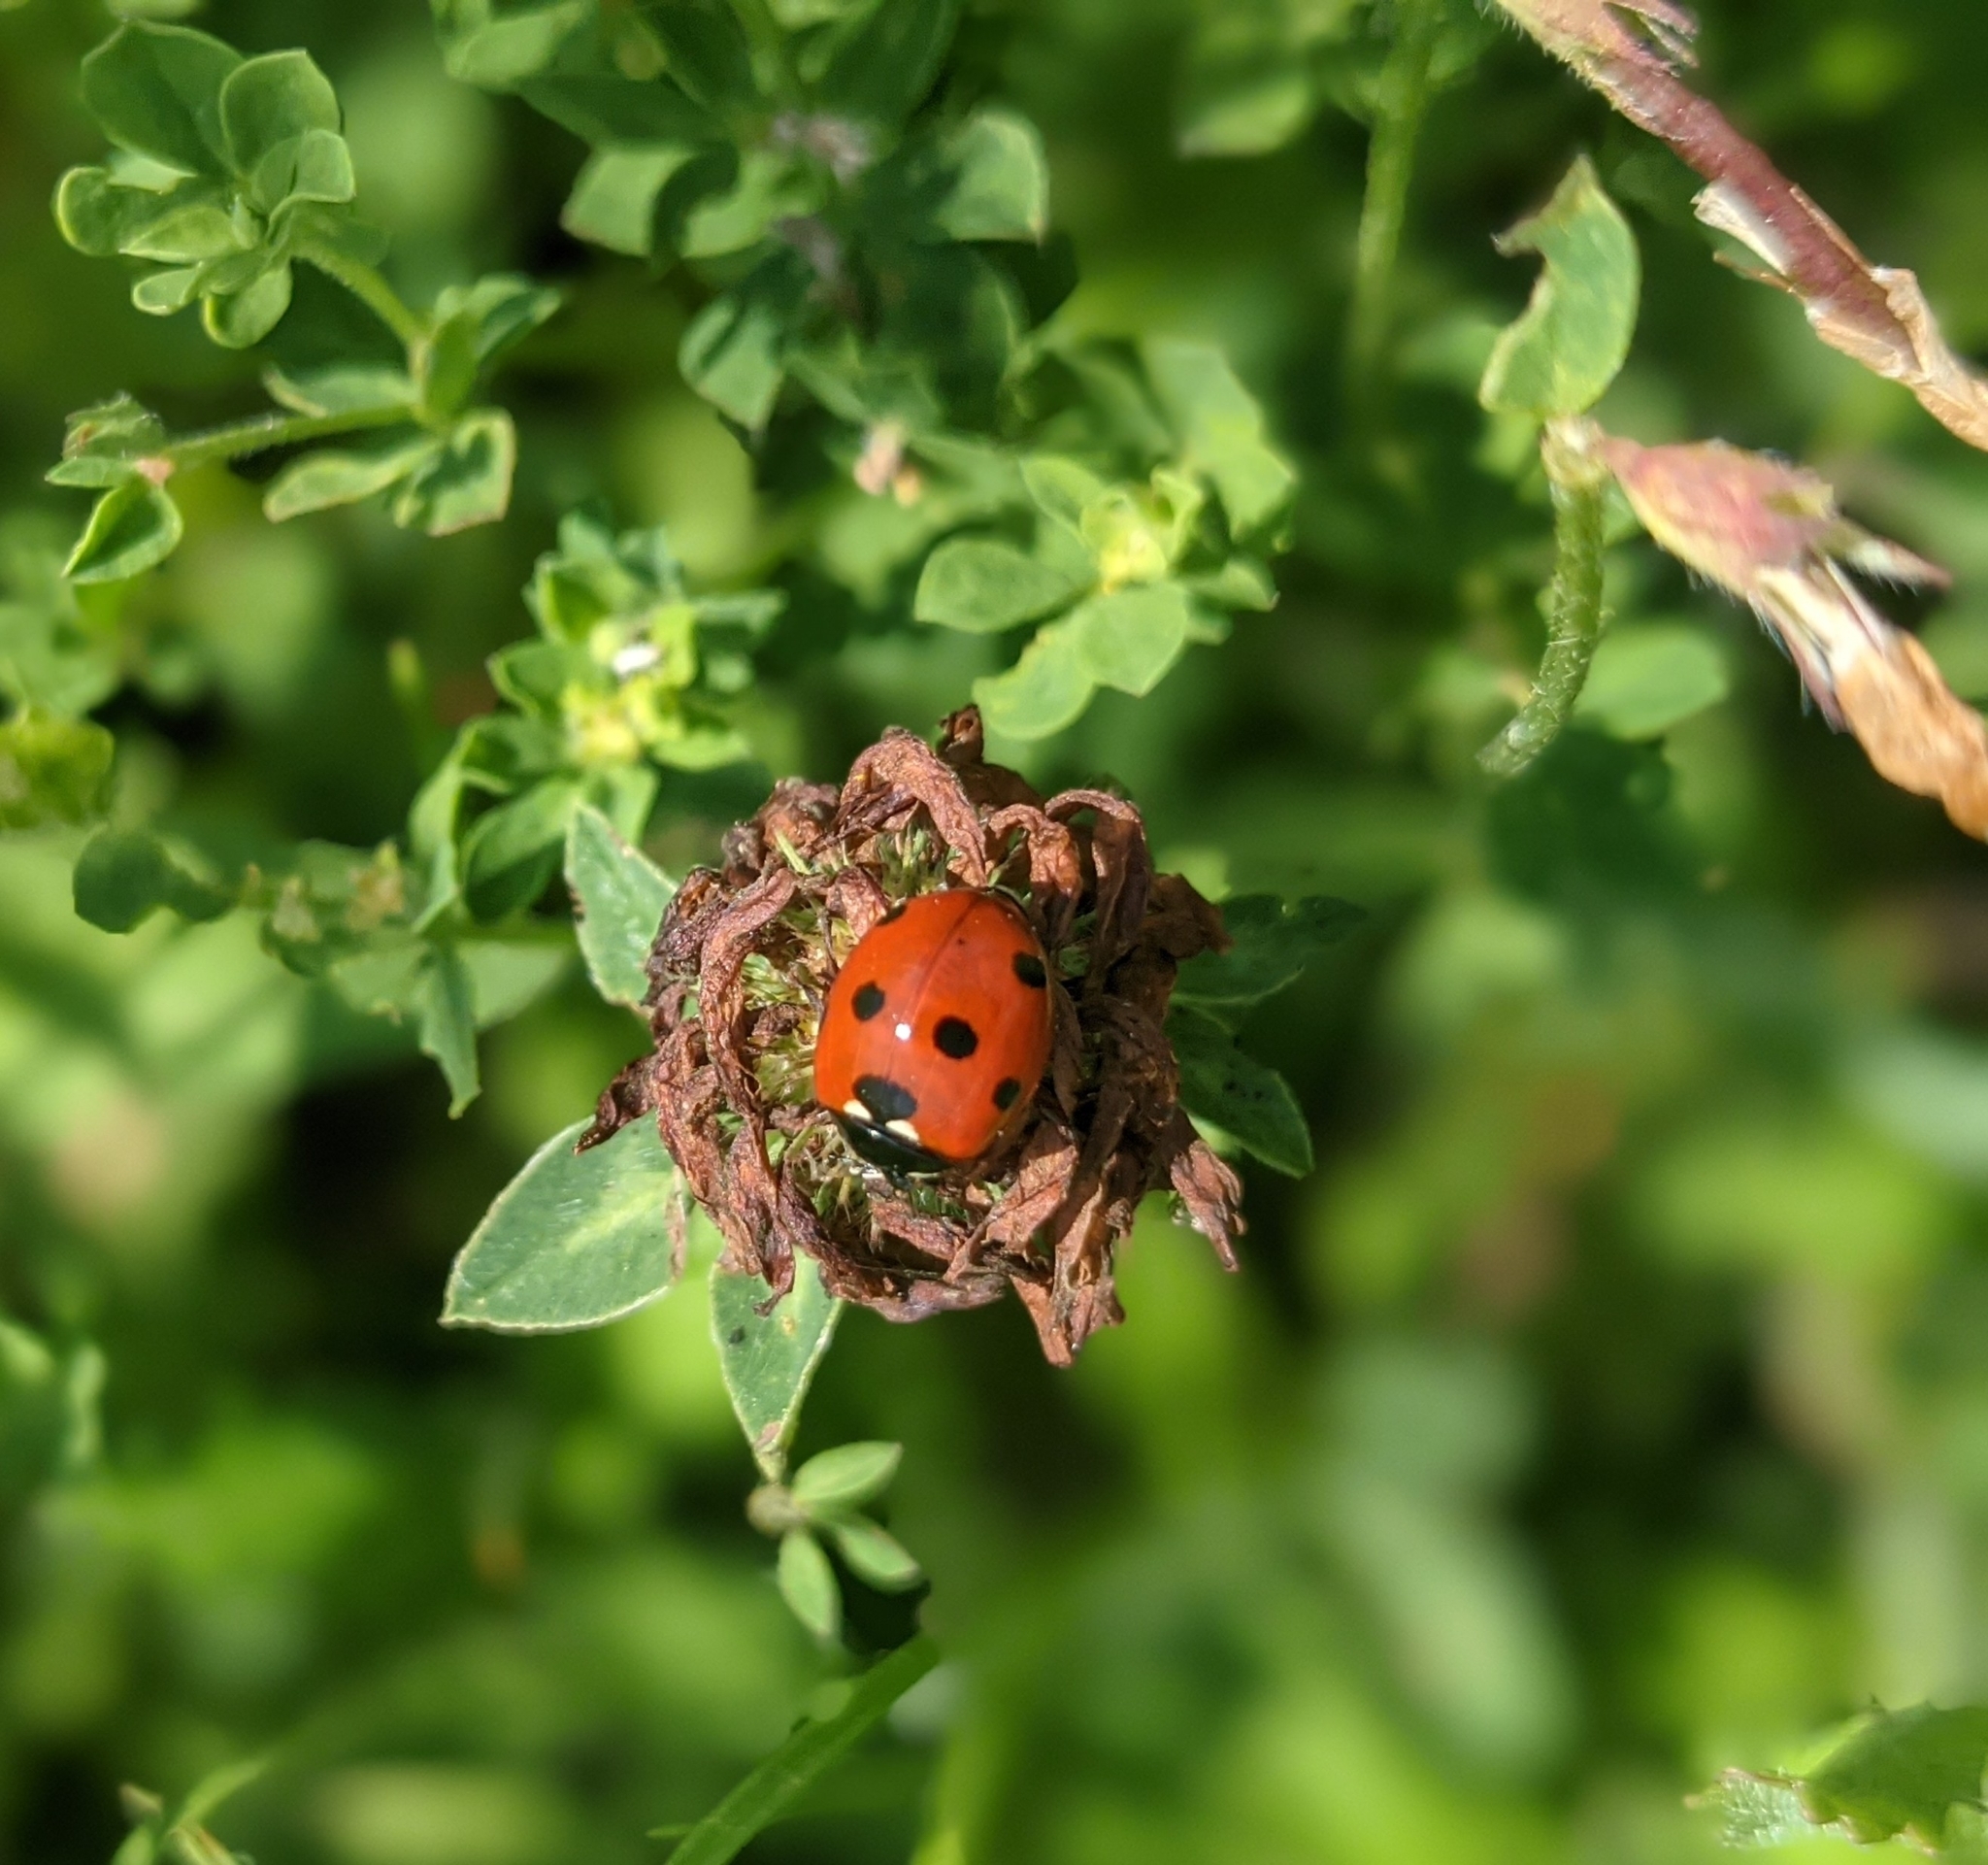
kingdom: Animalia
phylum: Arthropoda
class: Insecta
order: Coleoptera
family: Coccinellidae
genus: Coccinella
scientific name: Coccinella septempunctata
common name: Sevenspotted lady beetle
